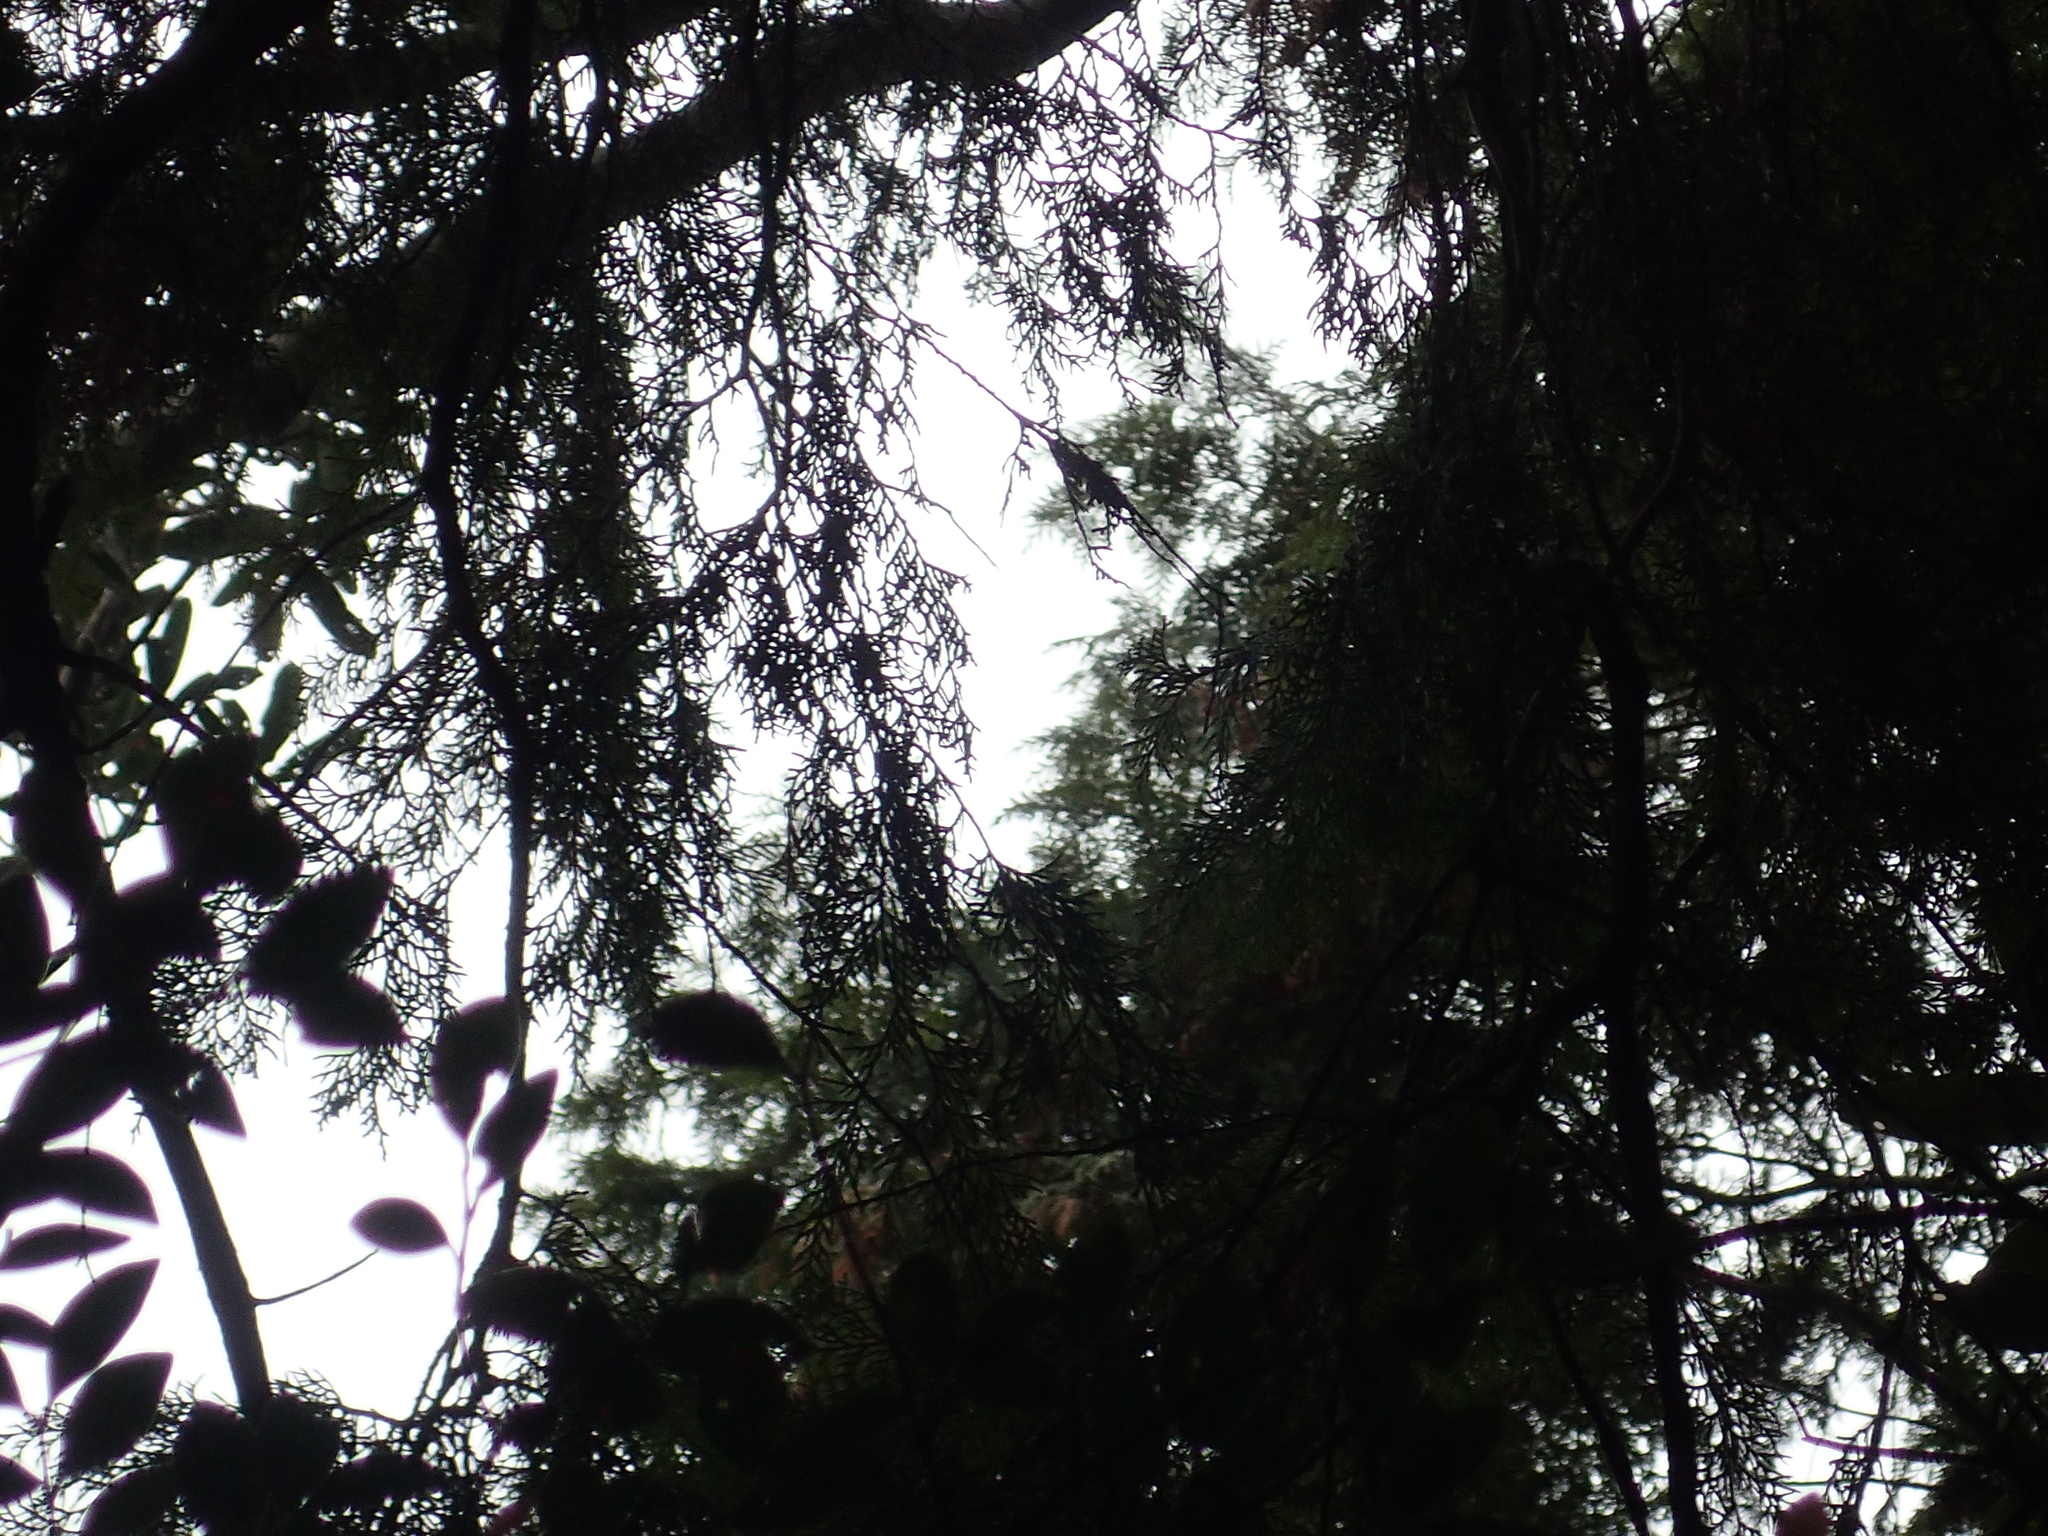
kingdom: Plantae
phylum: Tracheophyta
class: Pinopsida
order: Pinales
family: Cupressaceae
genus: Chamaecyparis
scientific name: Chamaecyparis obtusa
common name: Hinoki false cypress
